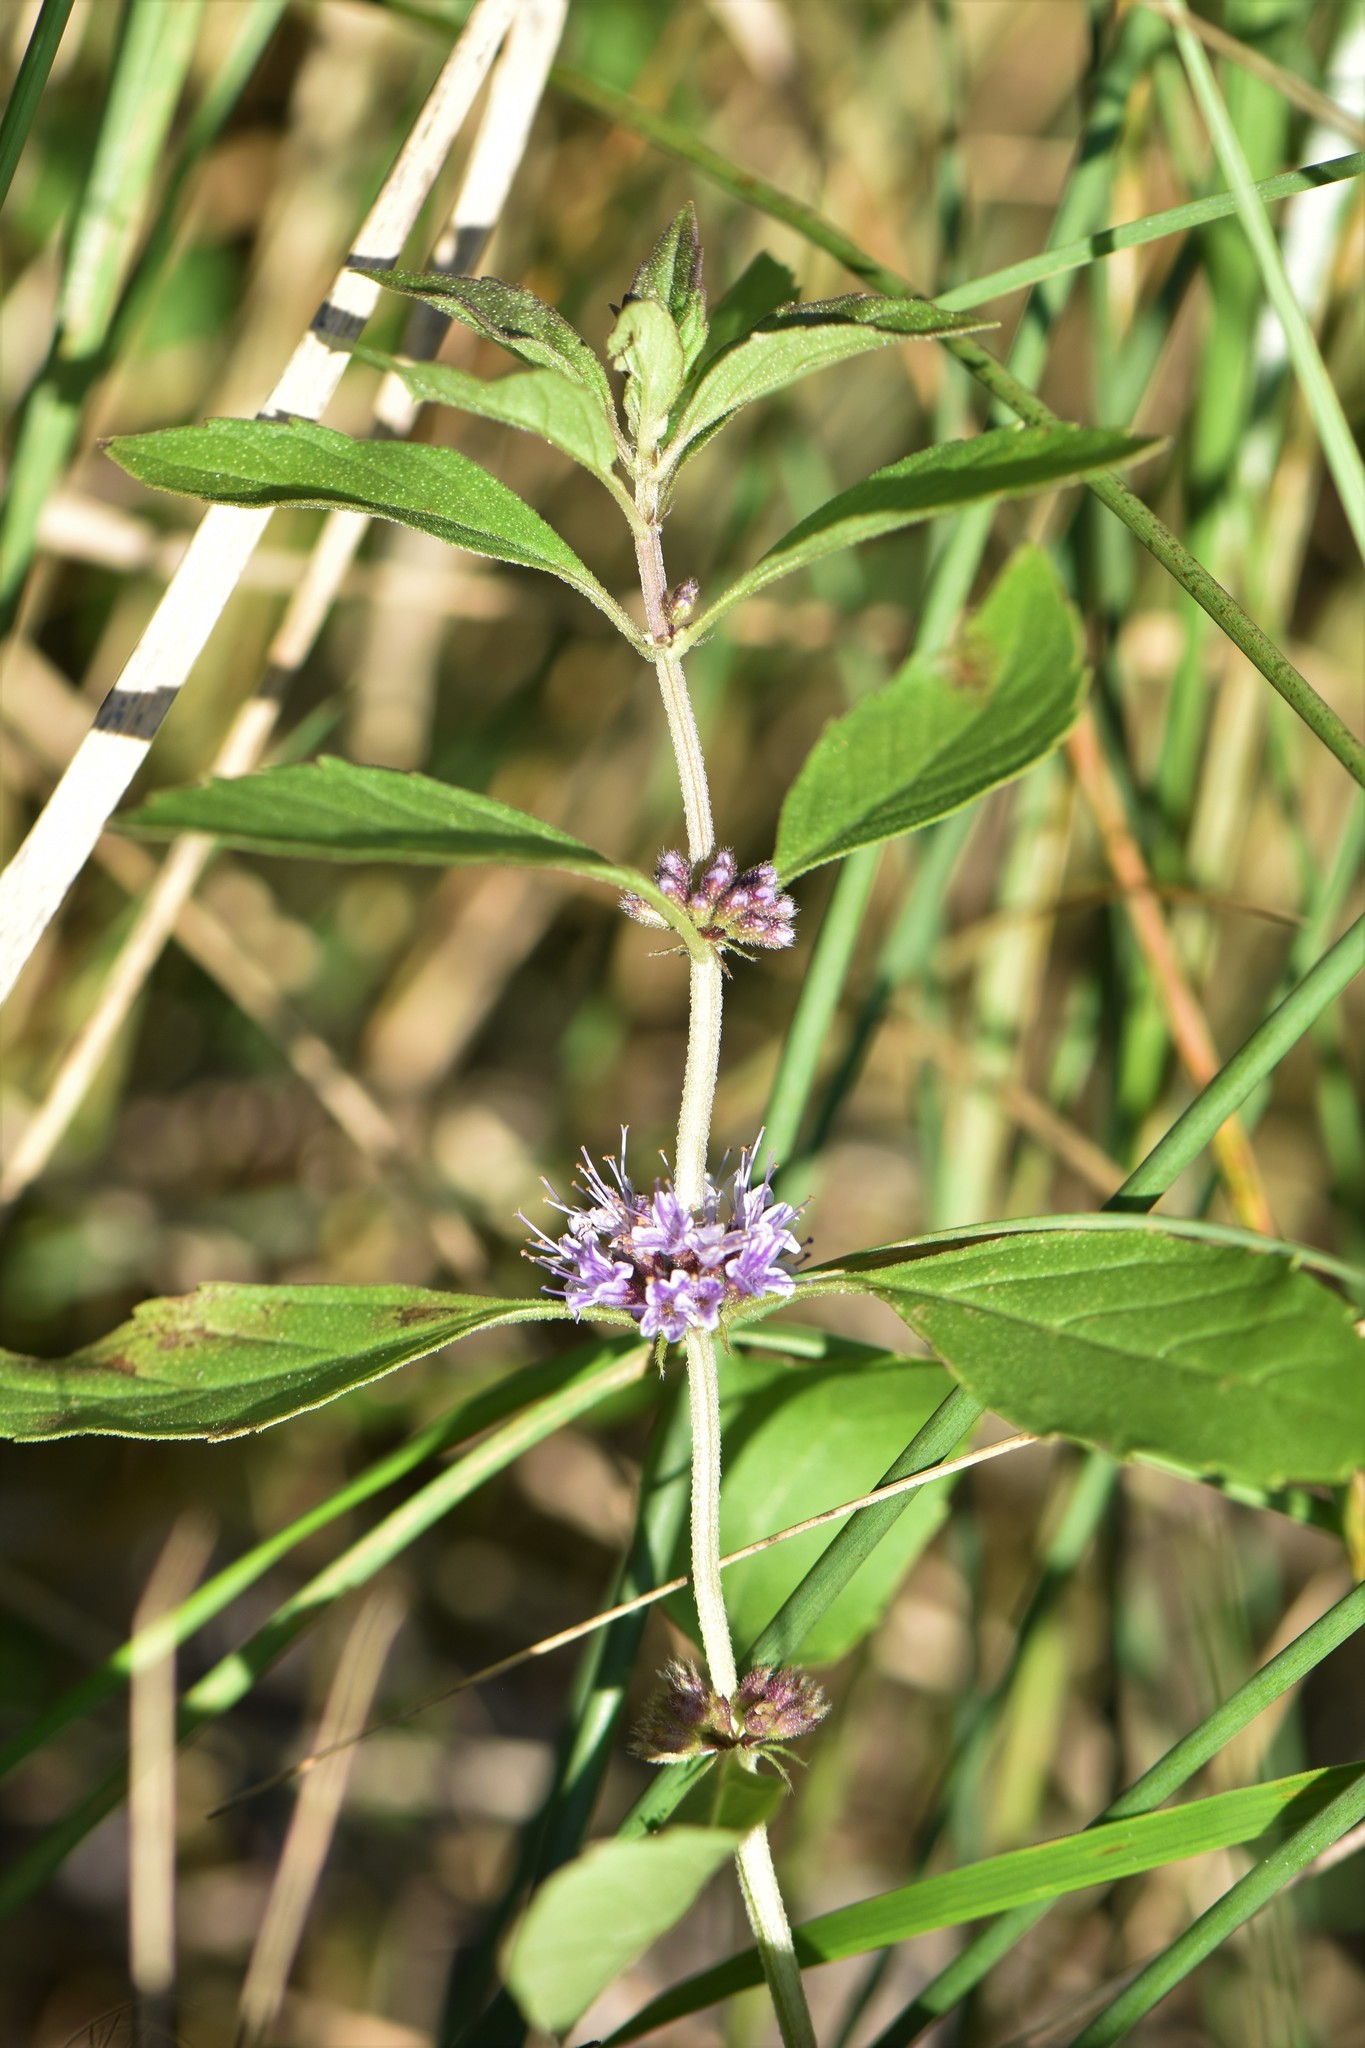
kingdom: Plantae
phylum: Tracheophyta
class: Magnoliopsida
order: Lamiales
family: Lamiaceae
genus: Mentha
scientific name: Mentha canadensis
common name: American corn mint
